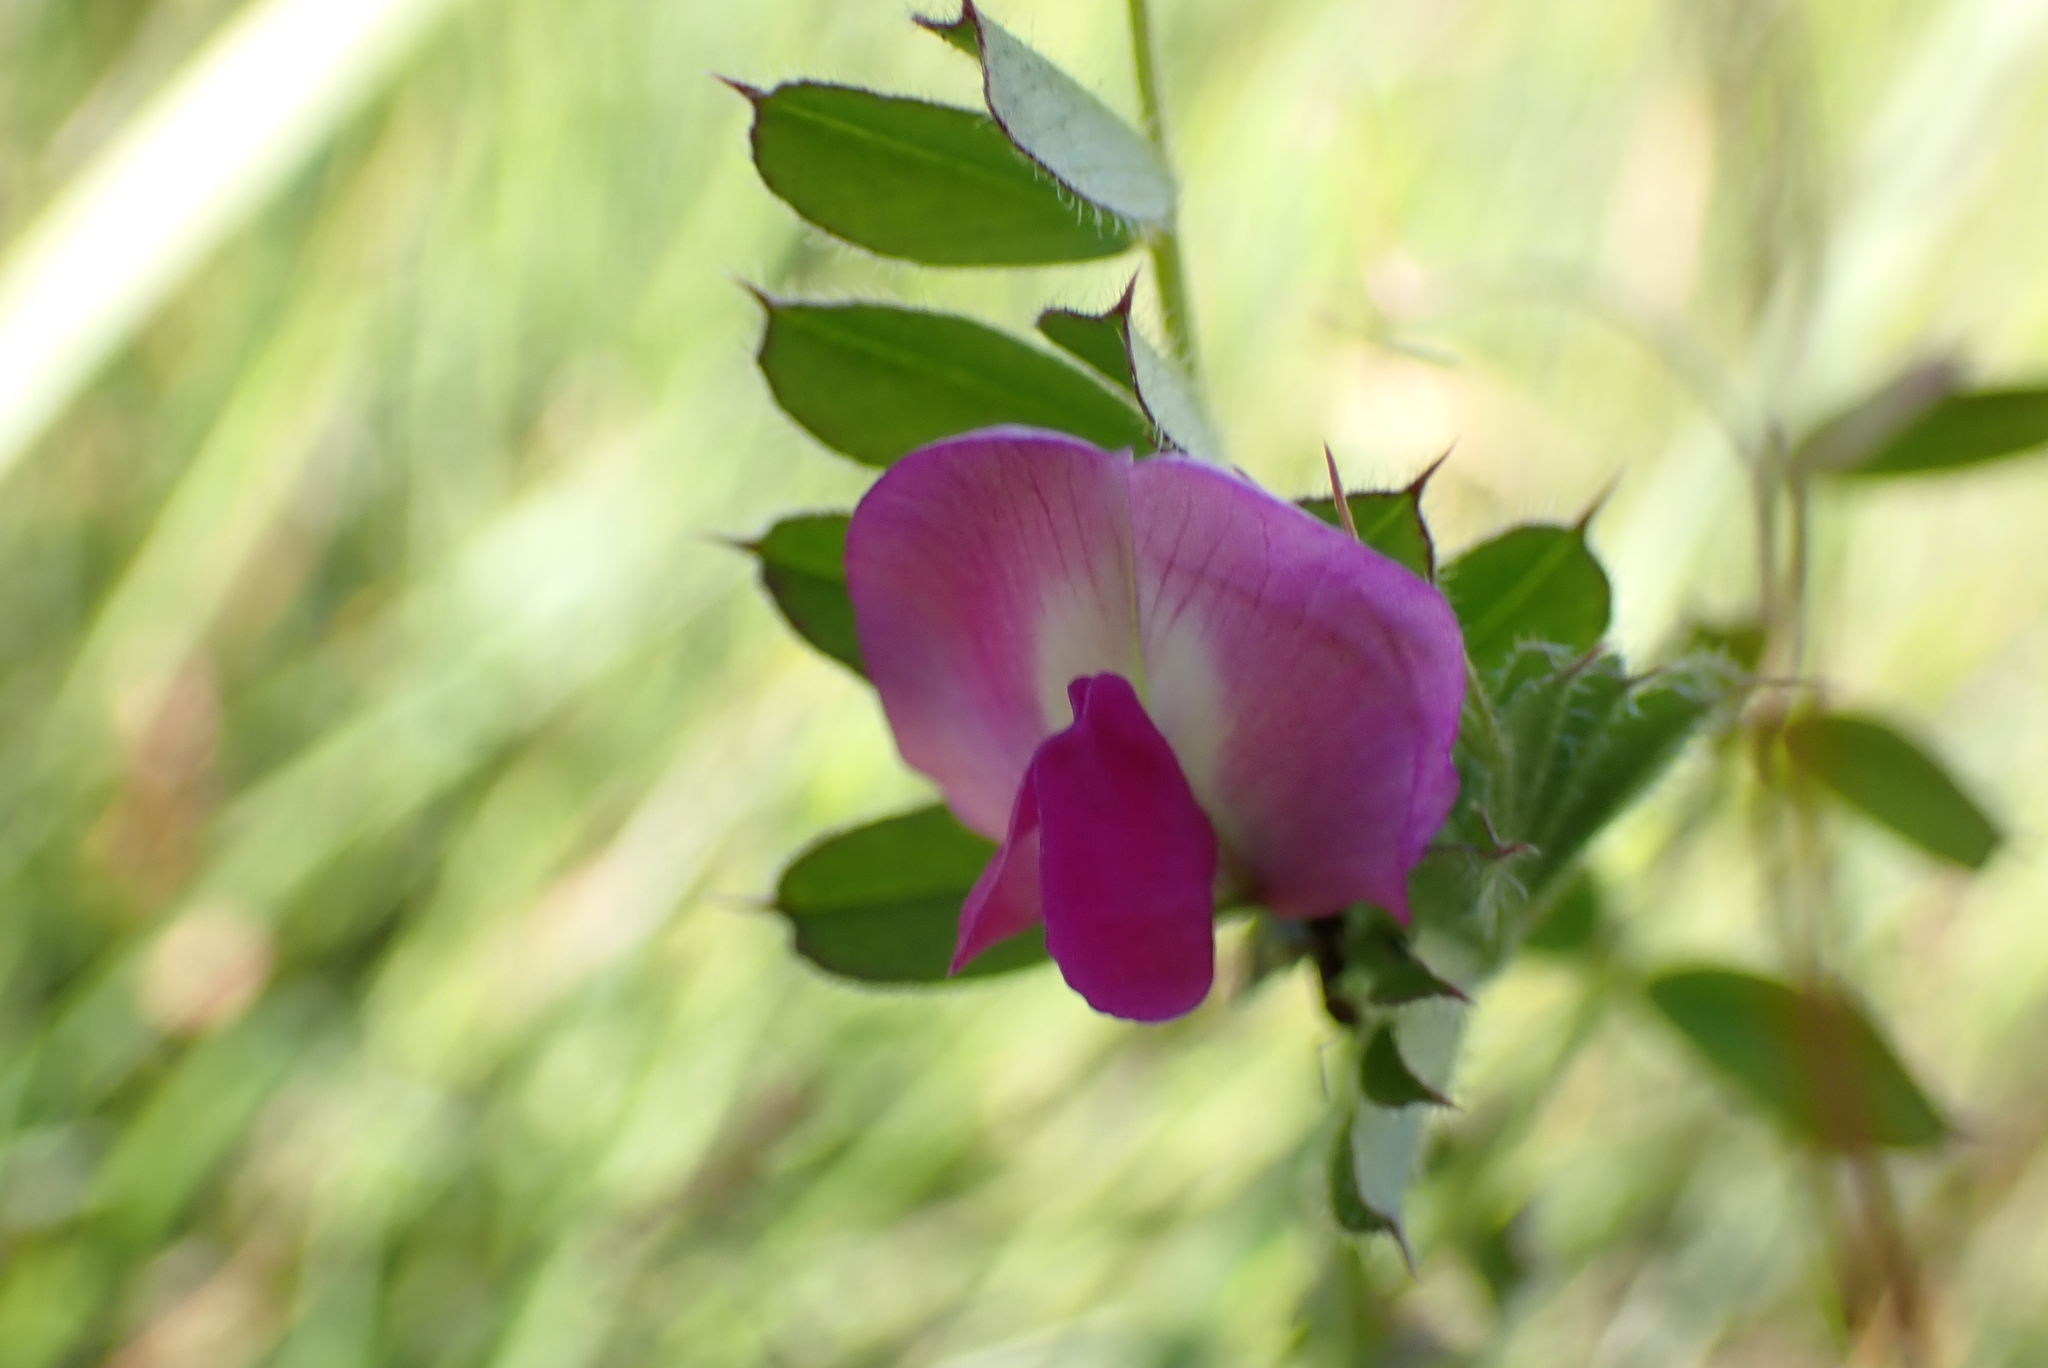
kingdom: Plantae
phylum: Tracheophyta
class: Magnoliopsida
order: Fabales
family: Fabaceae
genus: Vicia
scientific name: Vicia sativa
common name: Garden vetch
